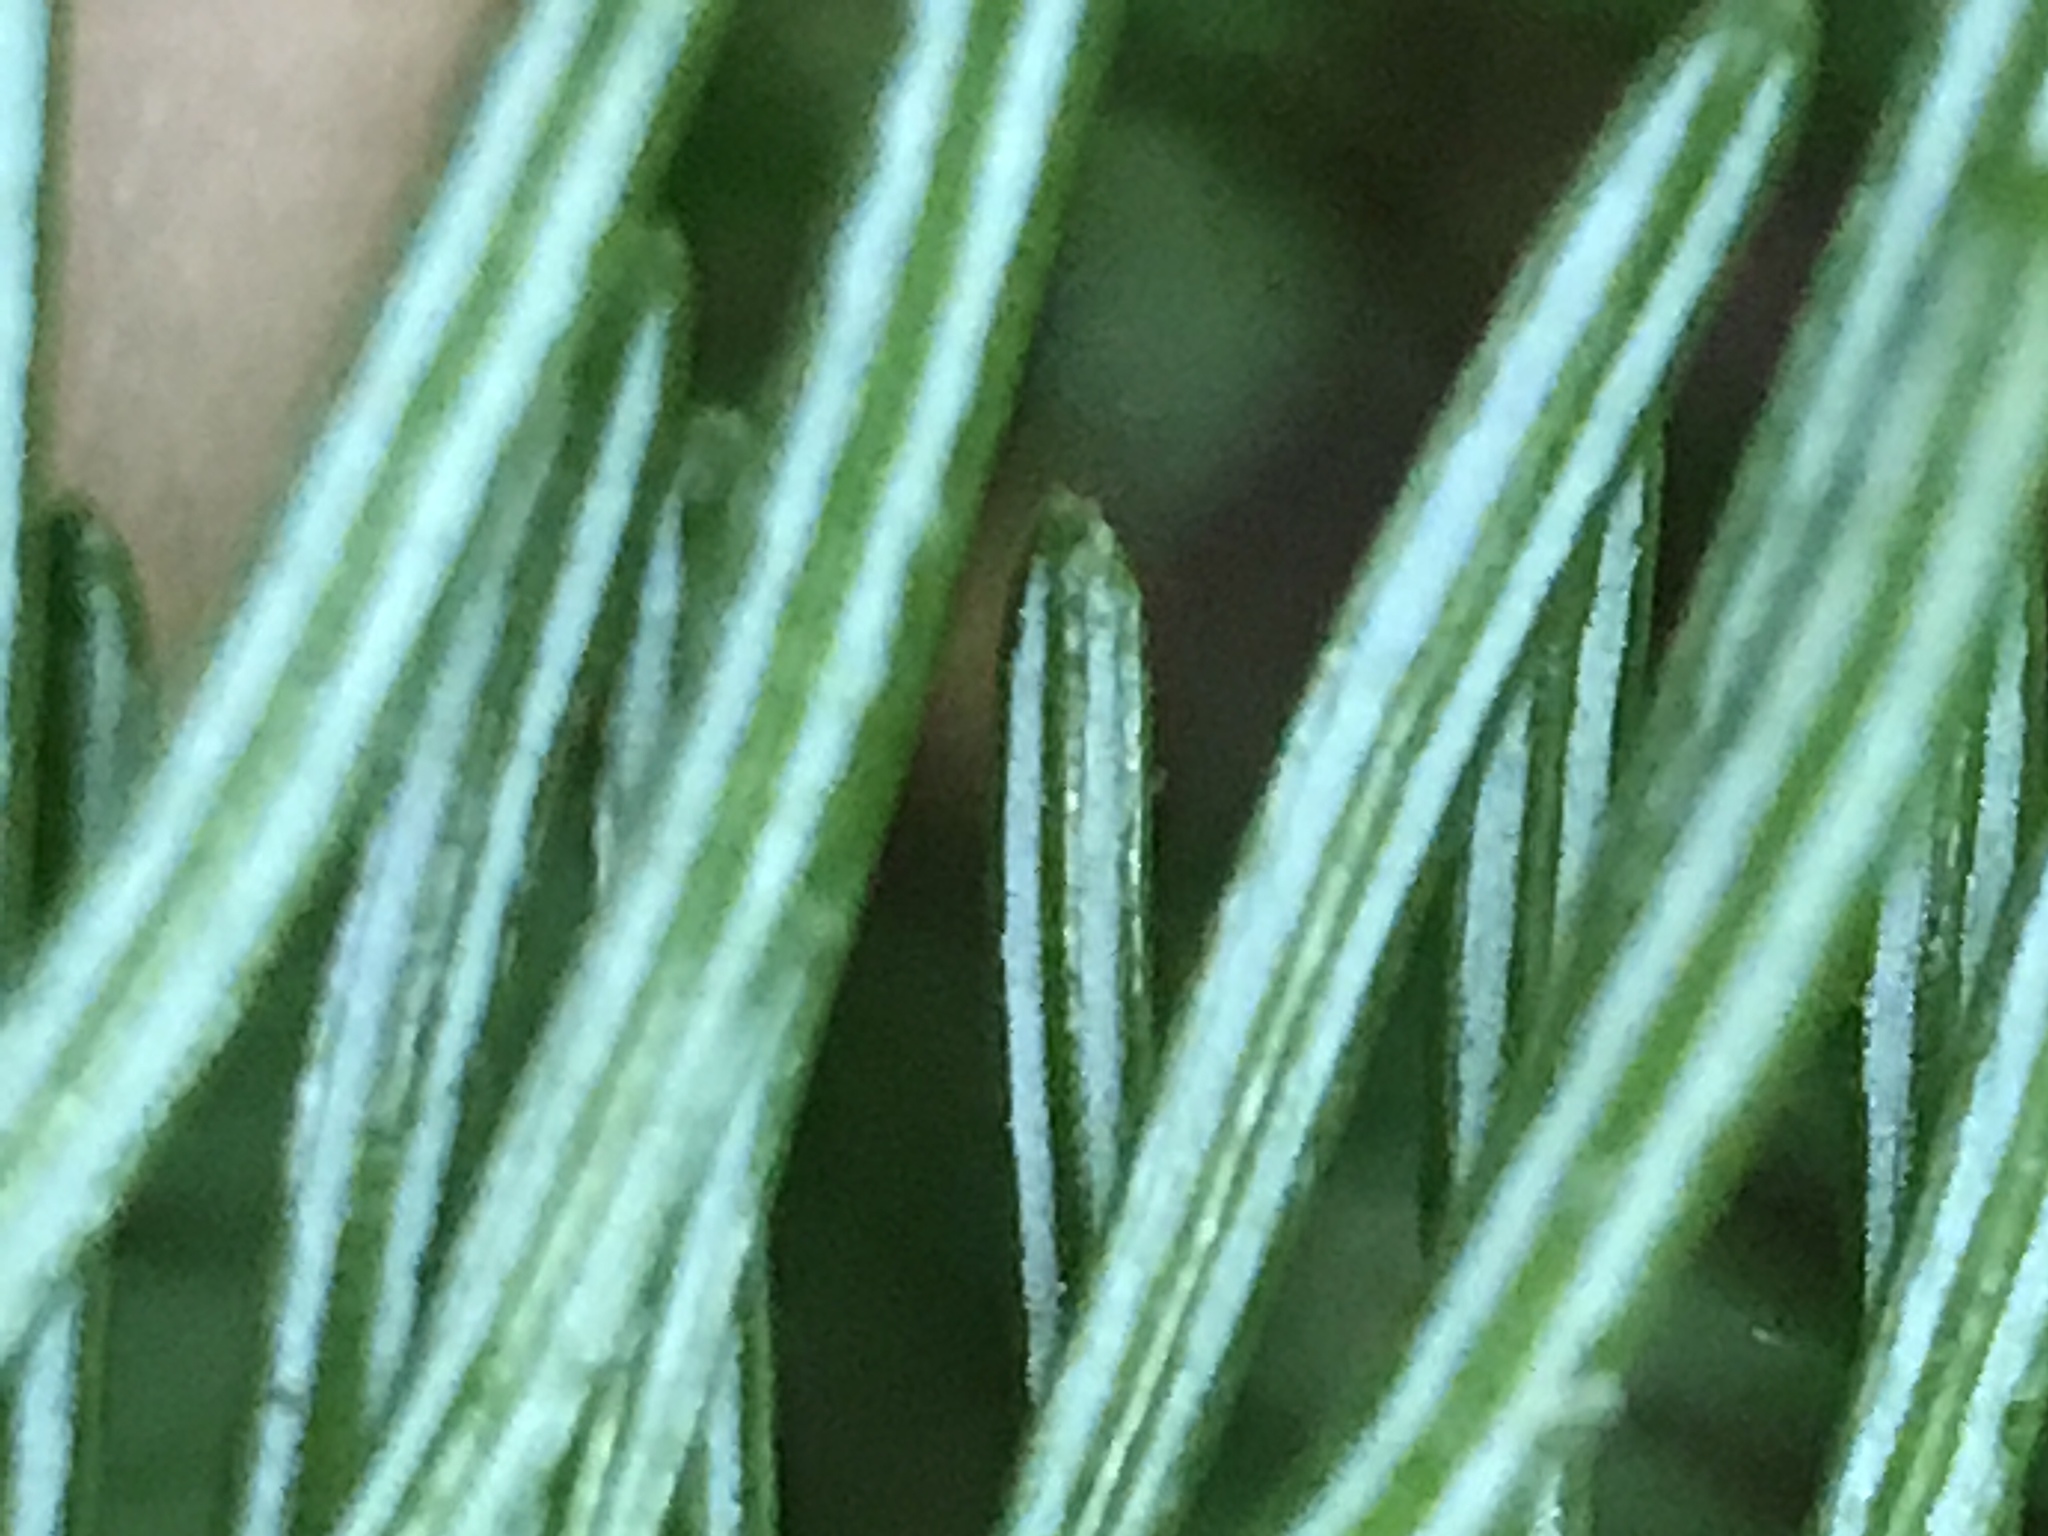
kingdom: Plantae
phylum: Tracheophyta
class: Pinopsida
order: Pinales
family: Pinaceae
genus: Abies
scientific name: Abies balsamea
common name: Balsam fir
